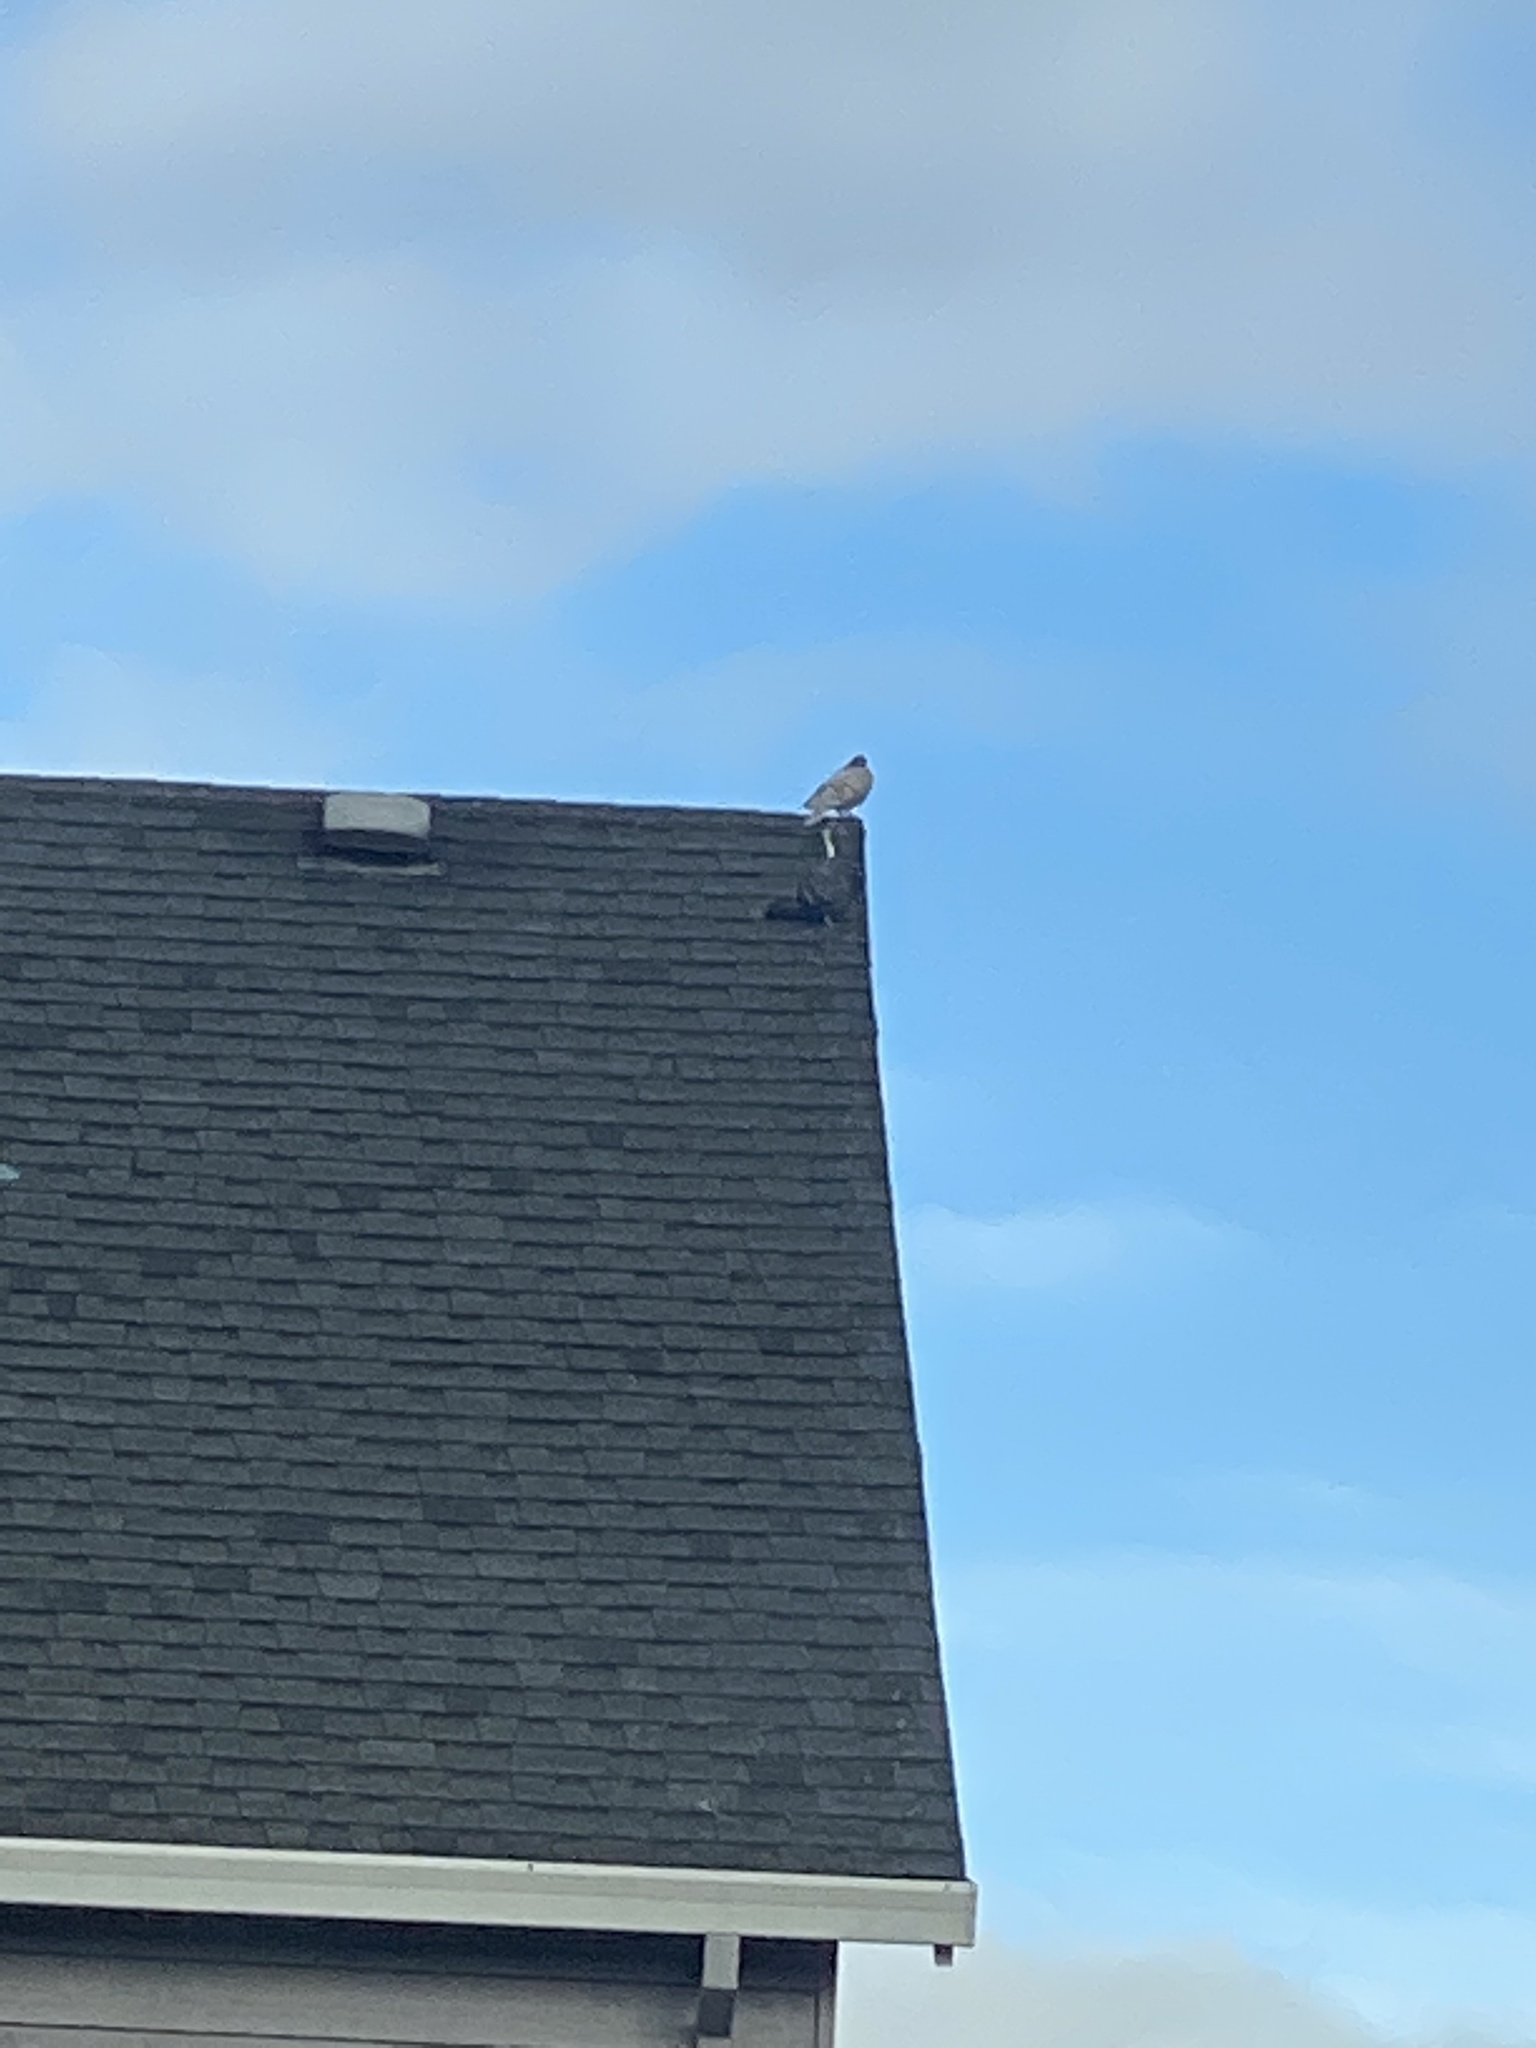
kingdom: Animalia
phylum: Chordata
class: Aves
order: Columbiformes
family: Columbidae
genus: Columba
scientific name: Columba livia
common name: Rock pigeon
